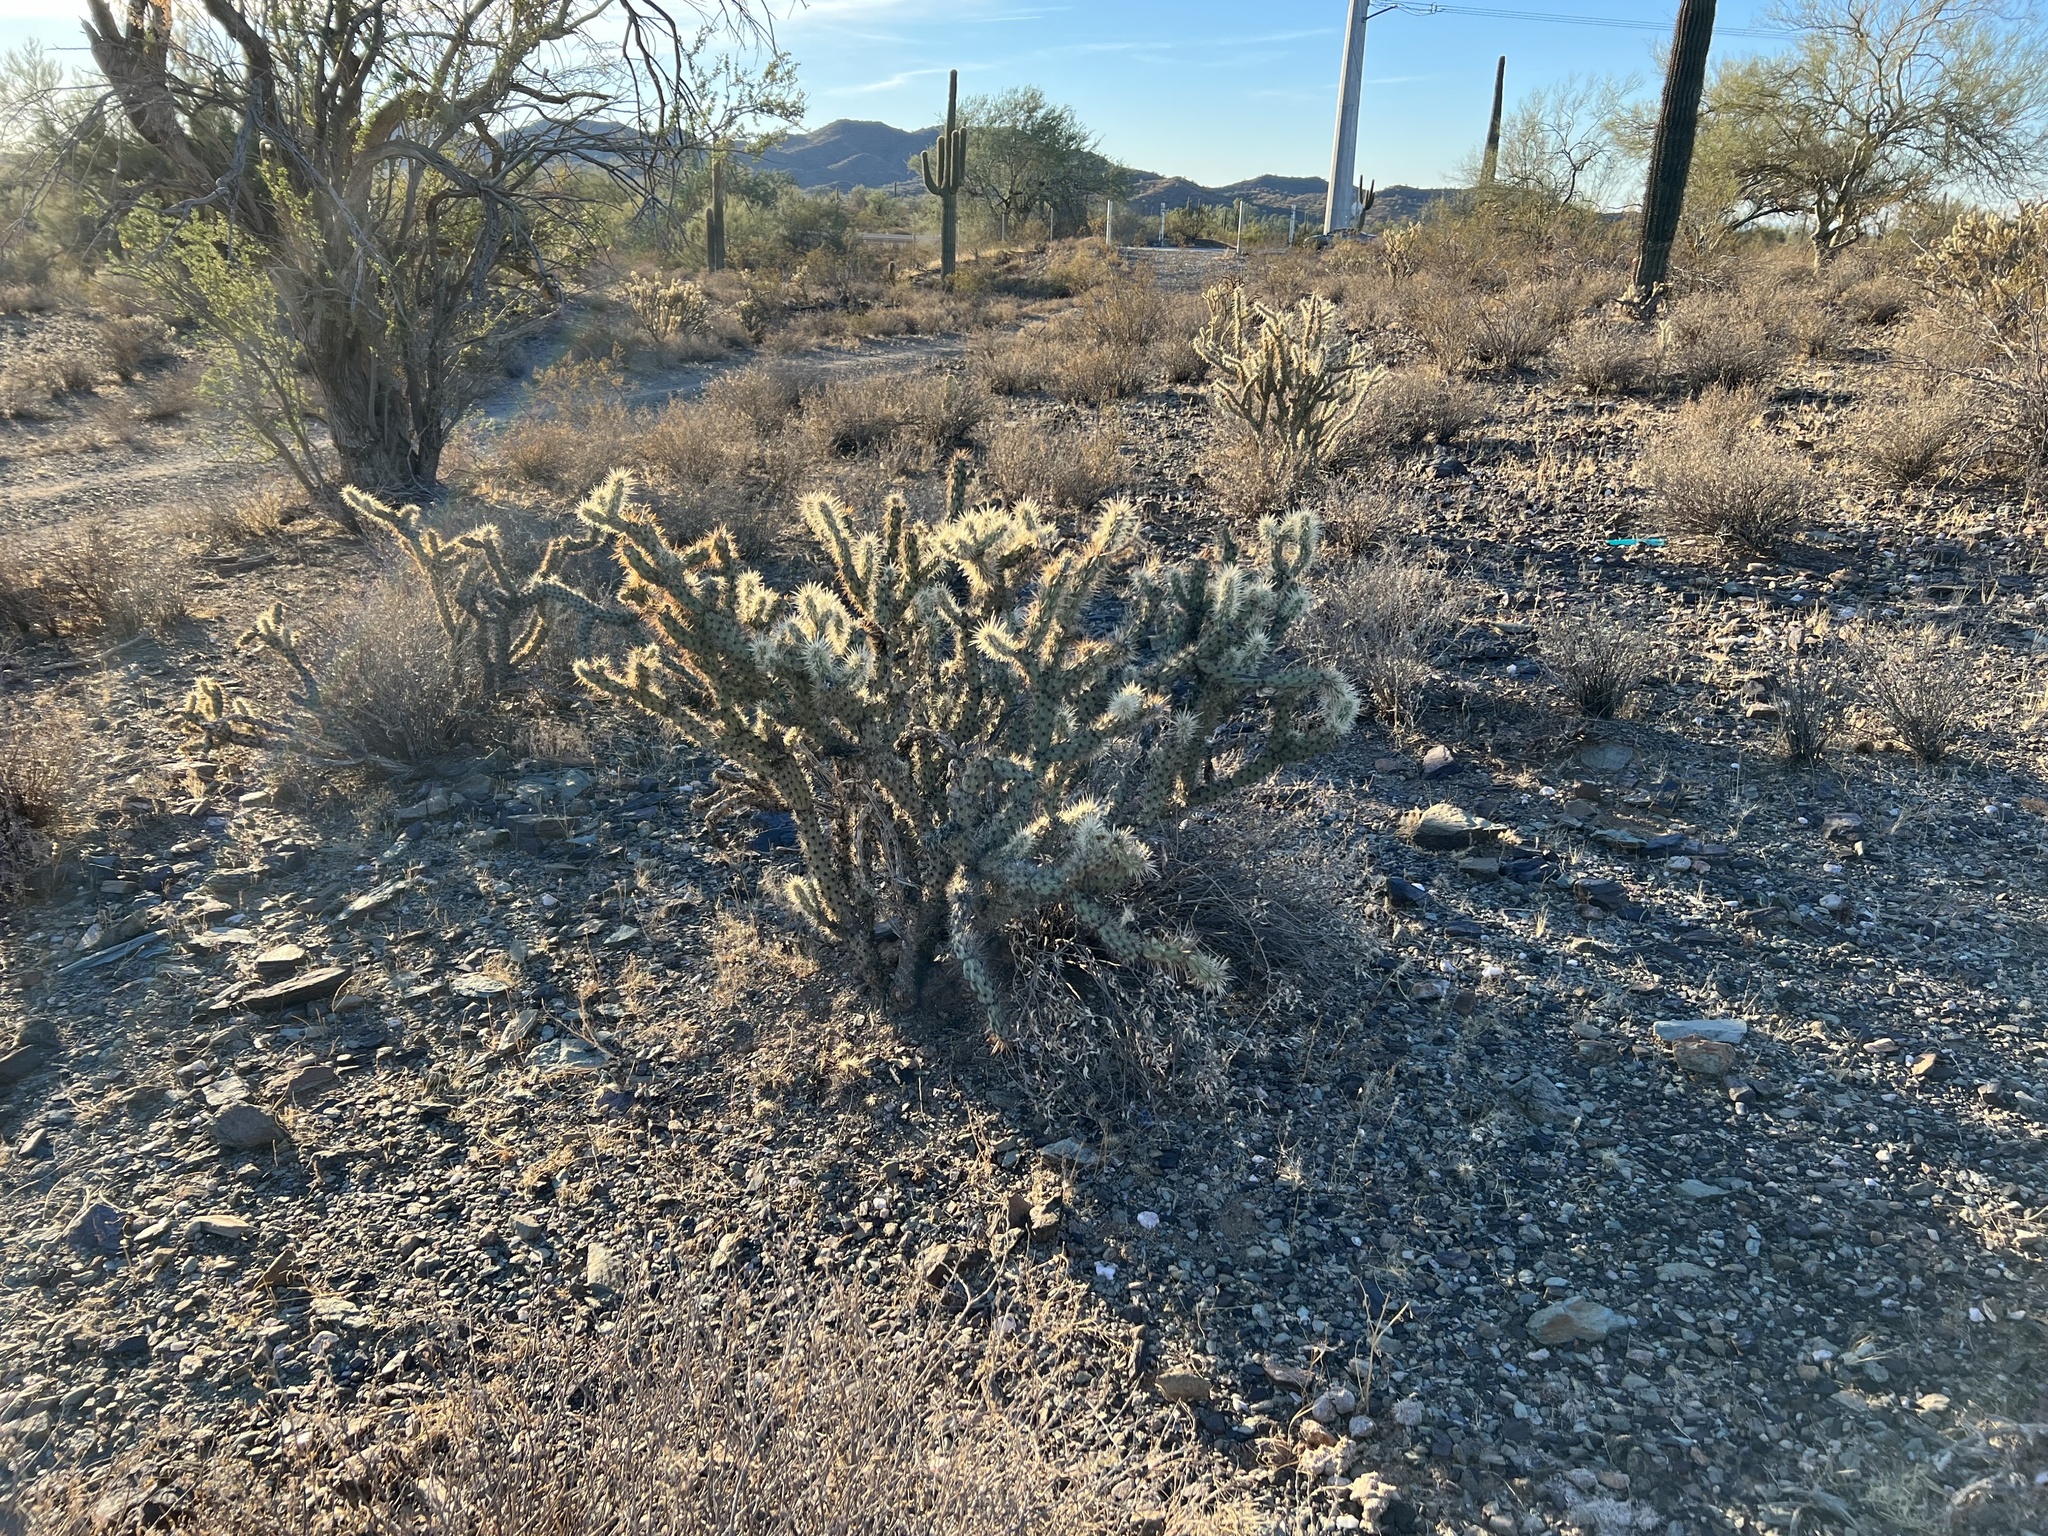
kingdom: Plantae
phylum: Tracheophyta
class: Magnoliopsida
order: Caryophyllales
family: Cactaceae
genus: Cylindropuntia
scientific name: Cylindropuntia acanthocarpa
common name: Buckhorn cholla
